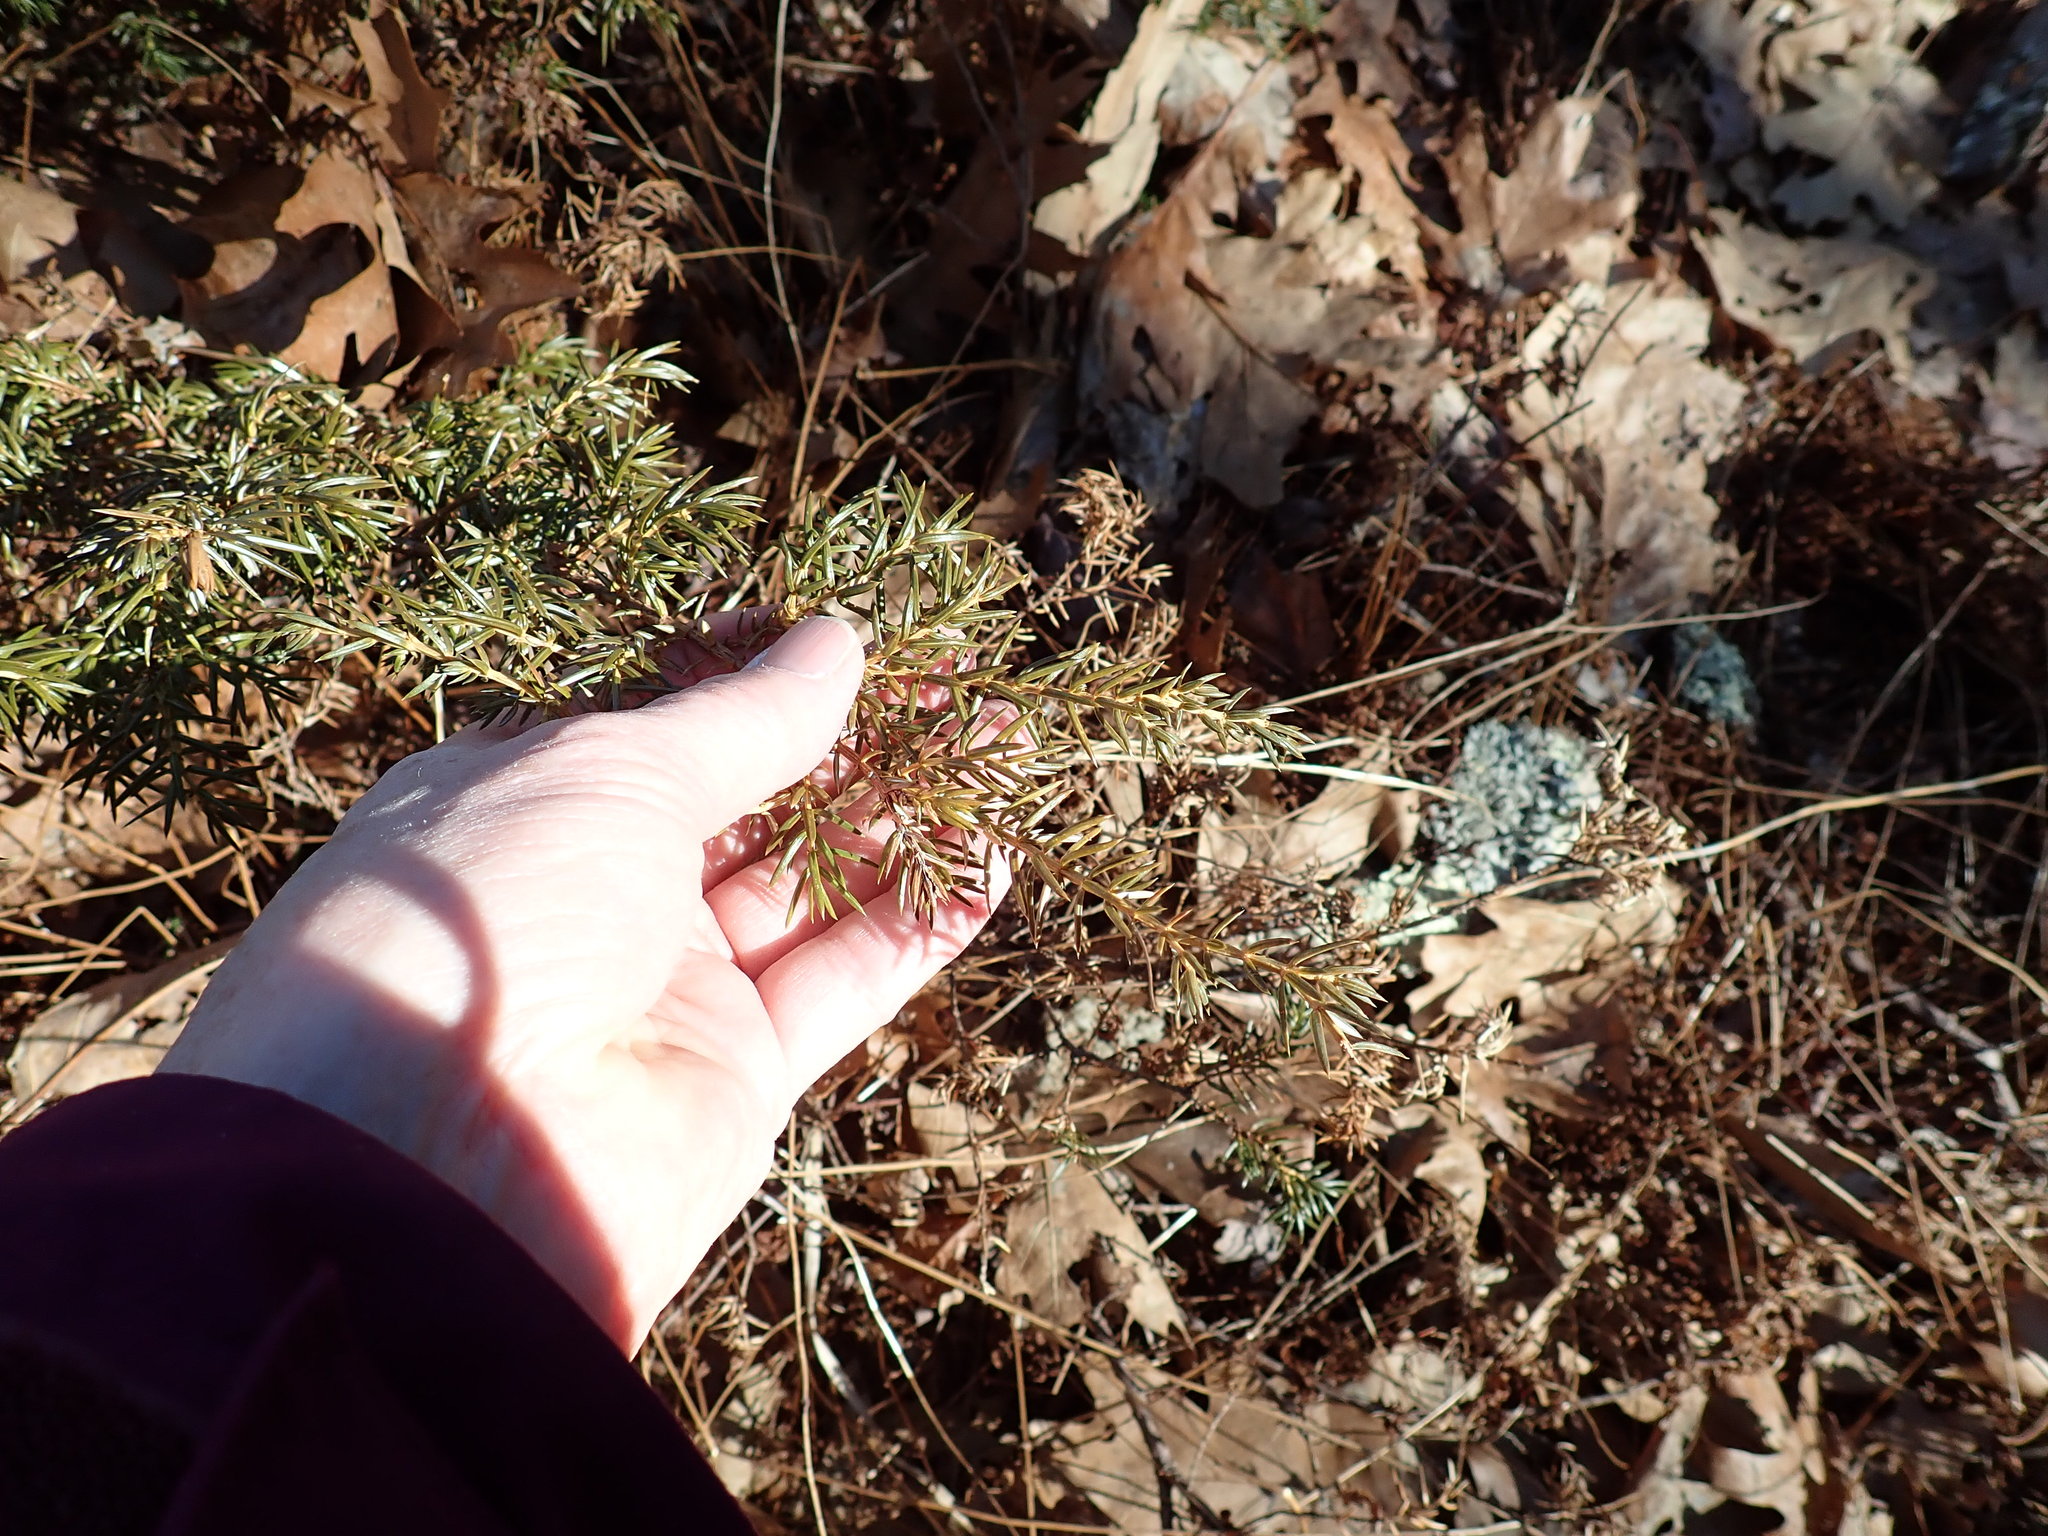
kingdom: Plantae
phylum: Tracheophyta
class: Pinopsida
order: Pinales
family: Cupressaceae
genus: Juniperus
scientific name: Juniperus communis
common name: Common juniper
